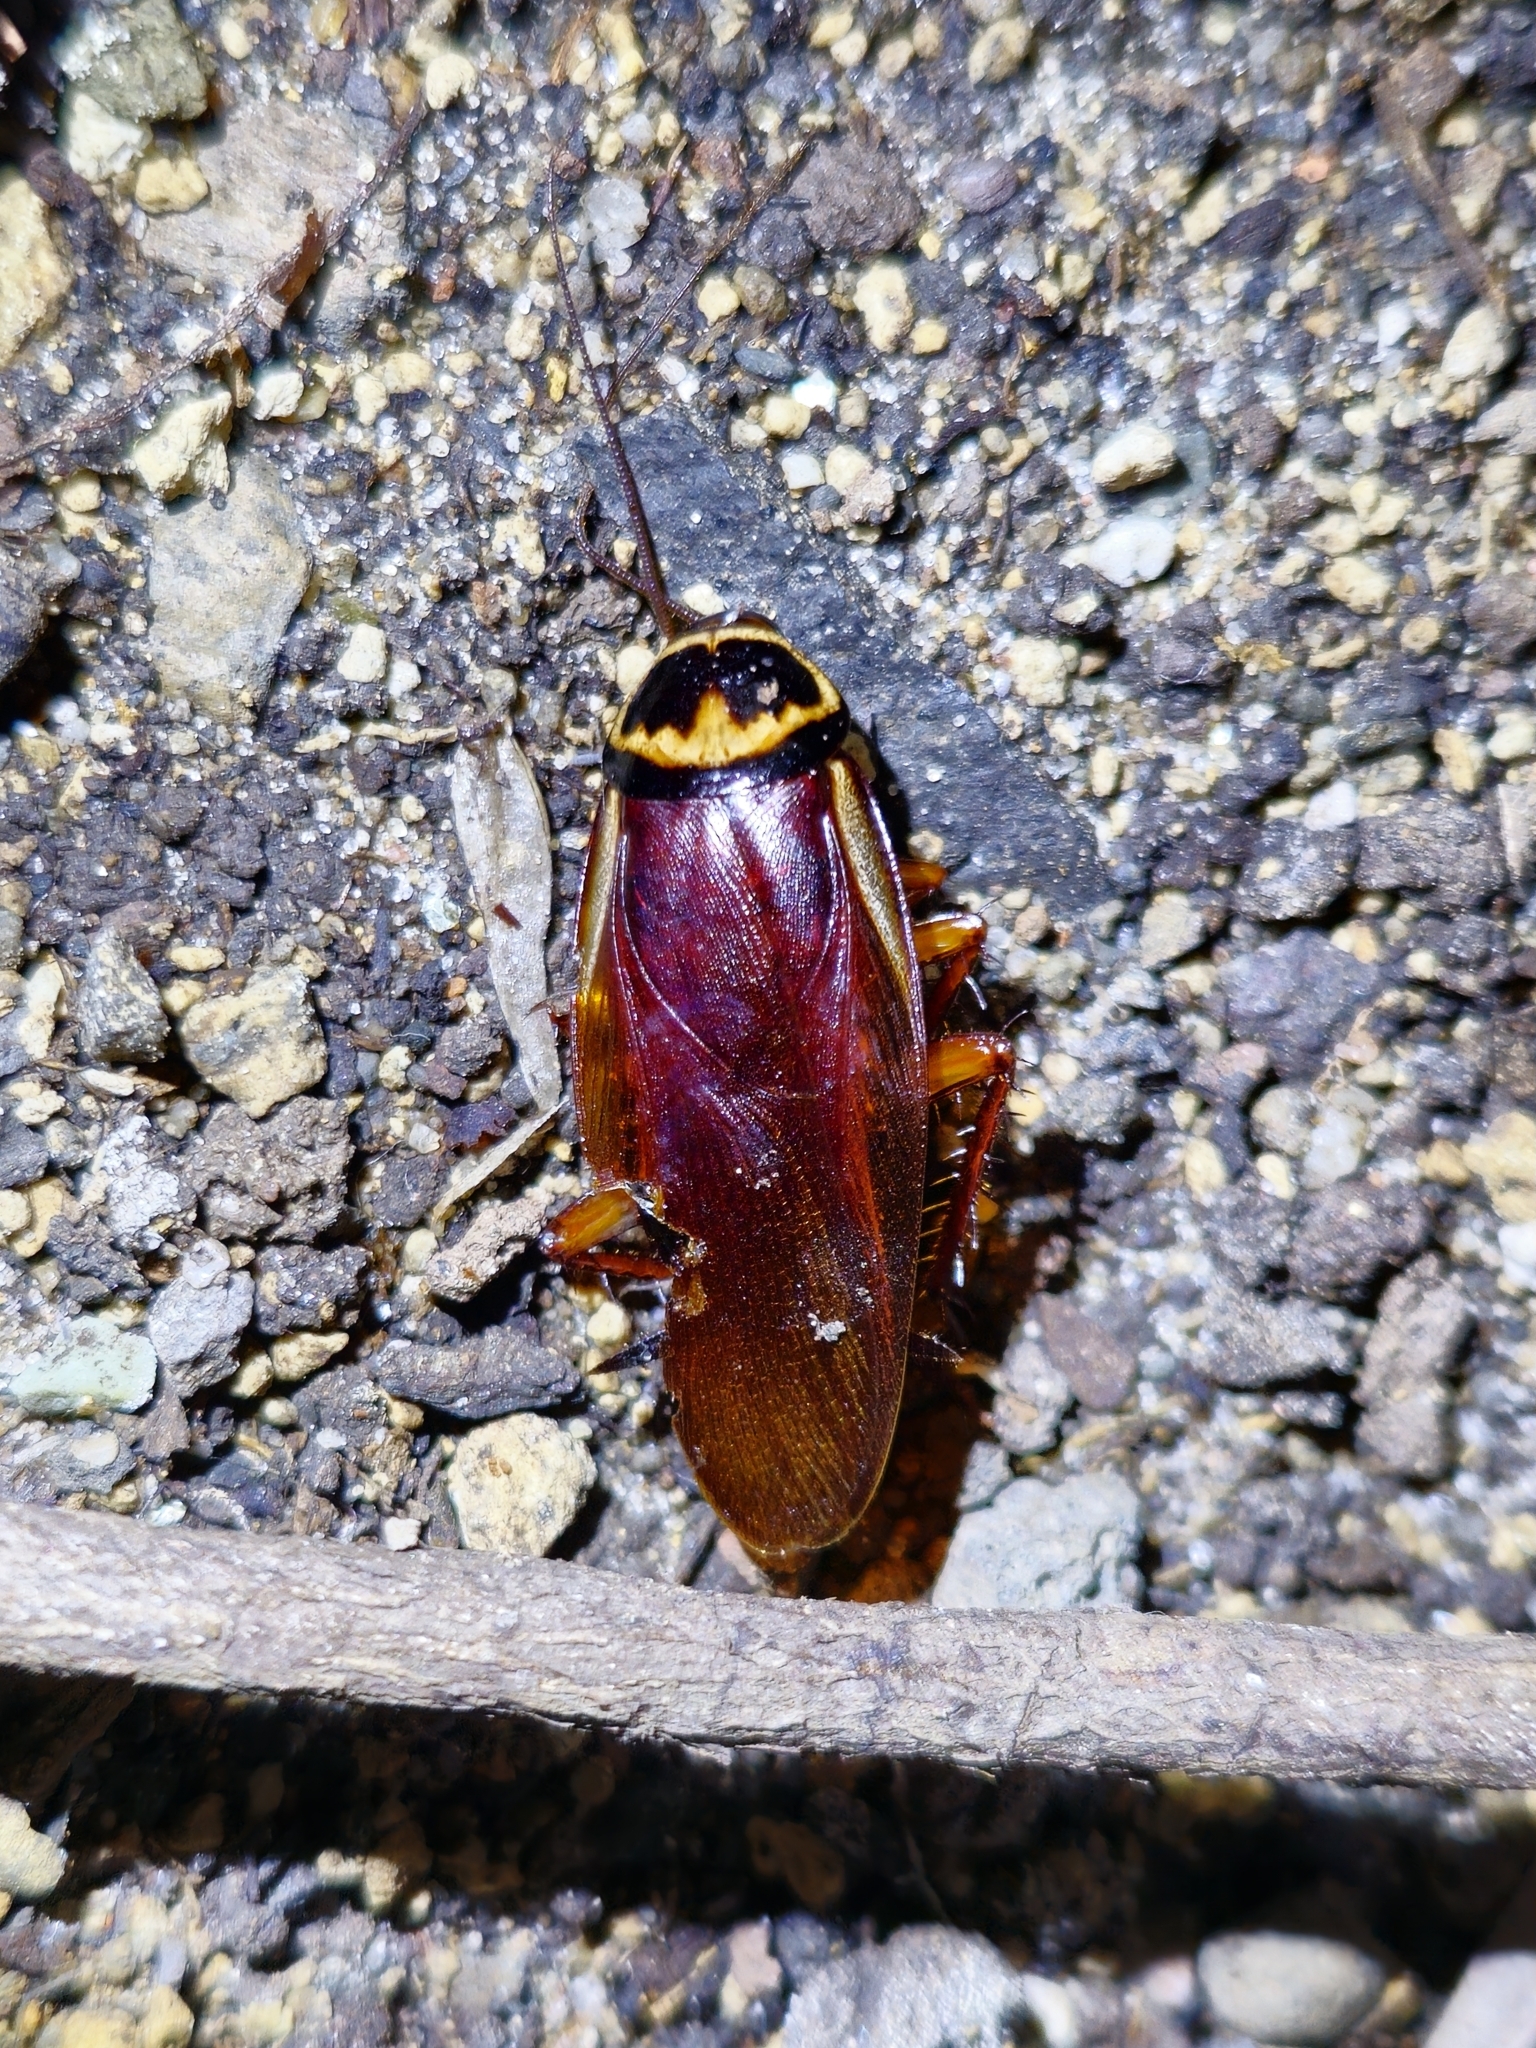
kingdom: Animalia
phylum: Arthropoda
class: Insecta
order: Blattodea
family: Blattidae
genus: Periplaneta
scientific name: Periplaneta australasiae
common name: Australian cockroach
